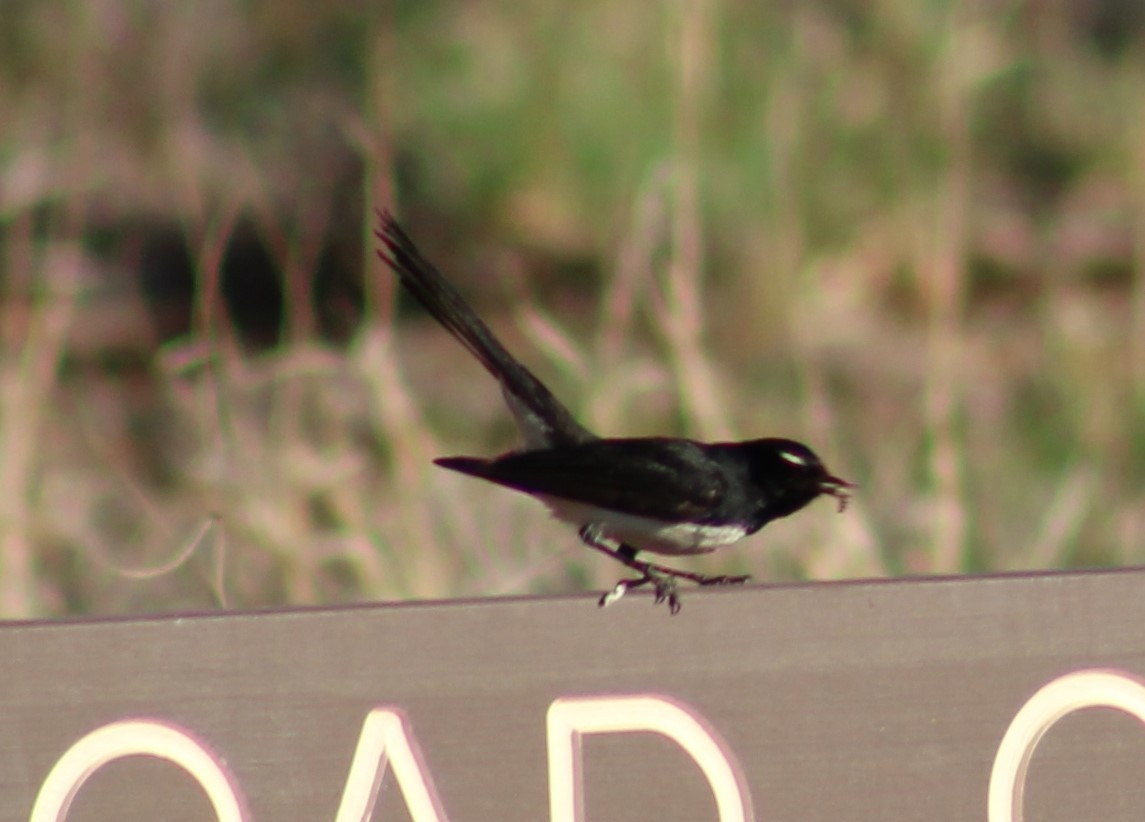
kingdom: Animalia
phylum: Chordata
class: Aves
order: Passeriformes
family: Rhipiduridae
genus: Rhipidura
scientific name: Rhipidura leucophrys
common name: Willie wagtail
